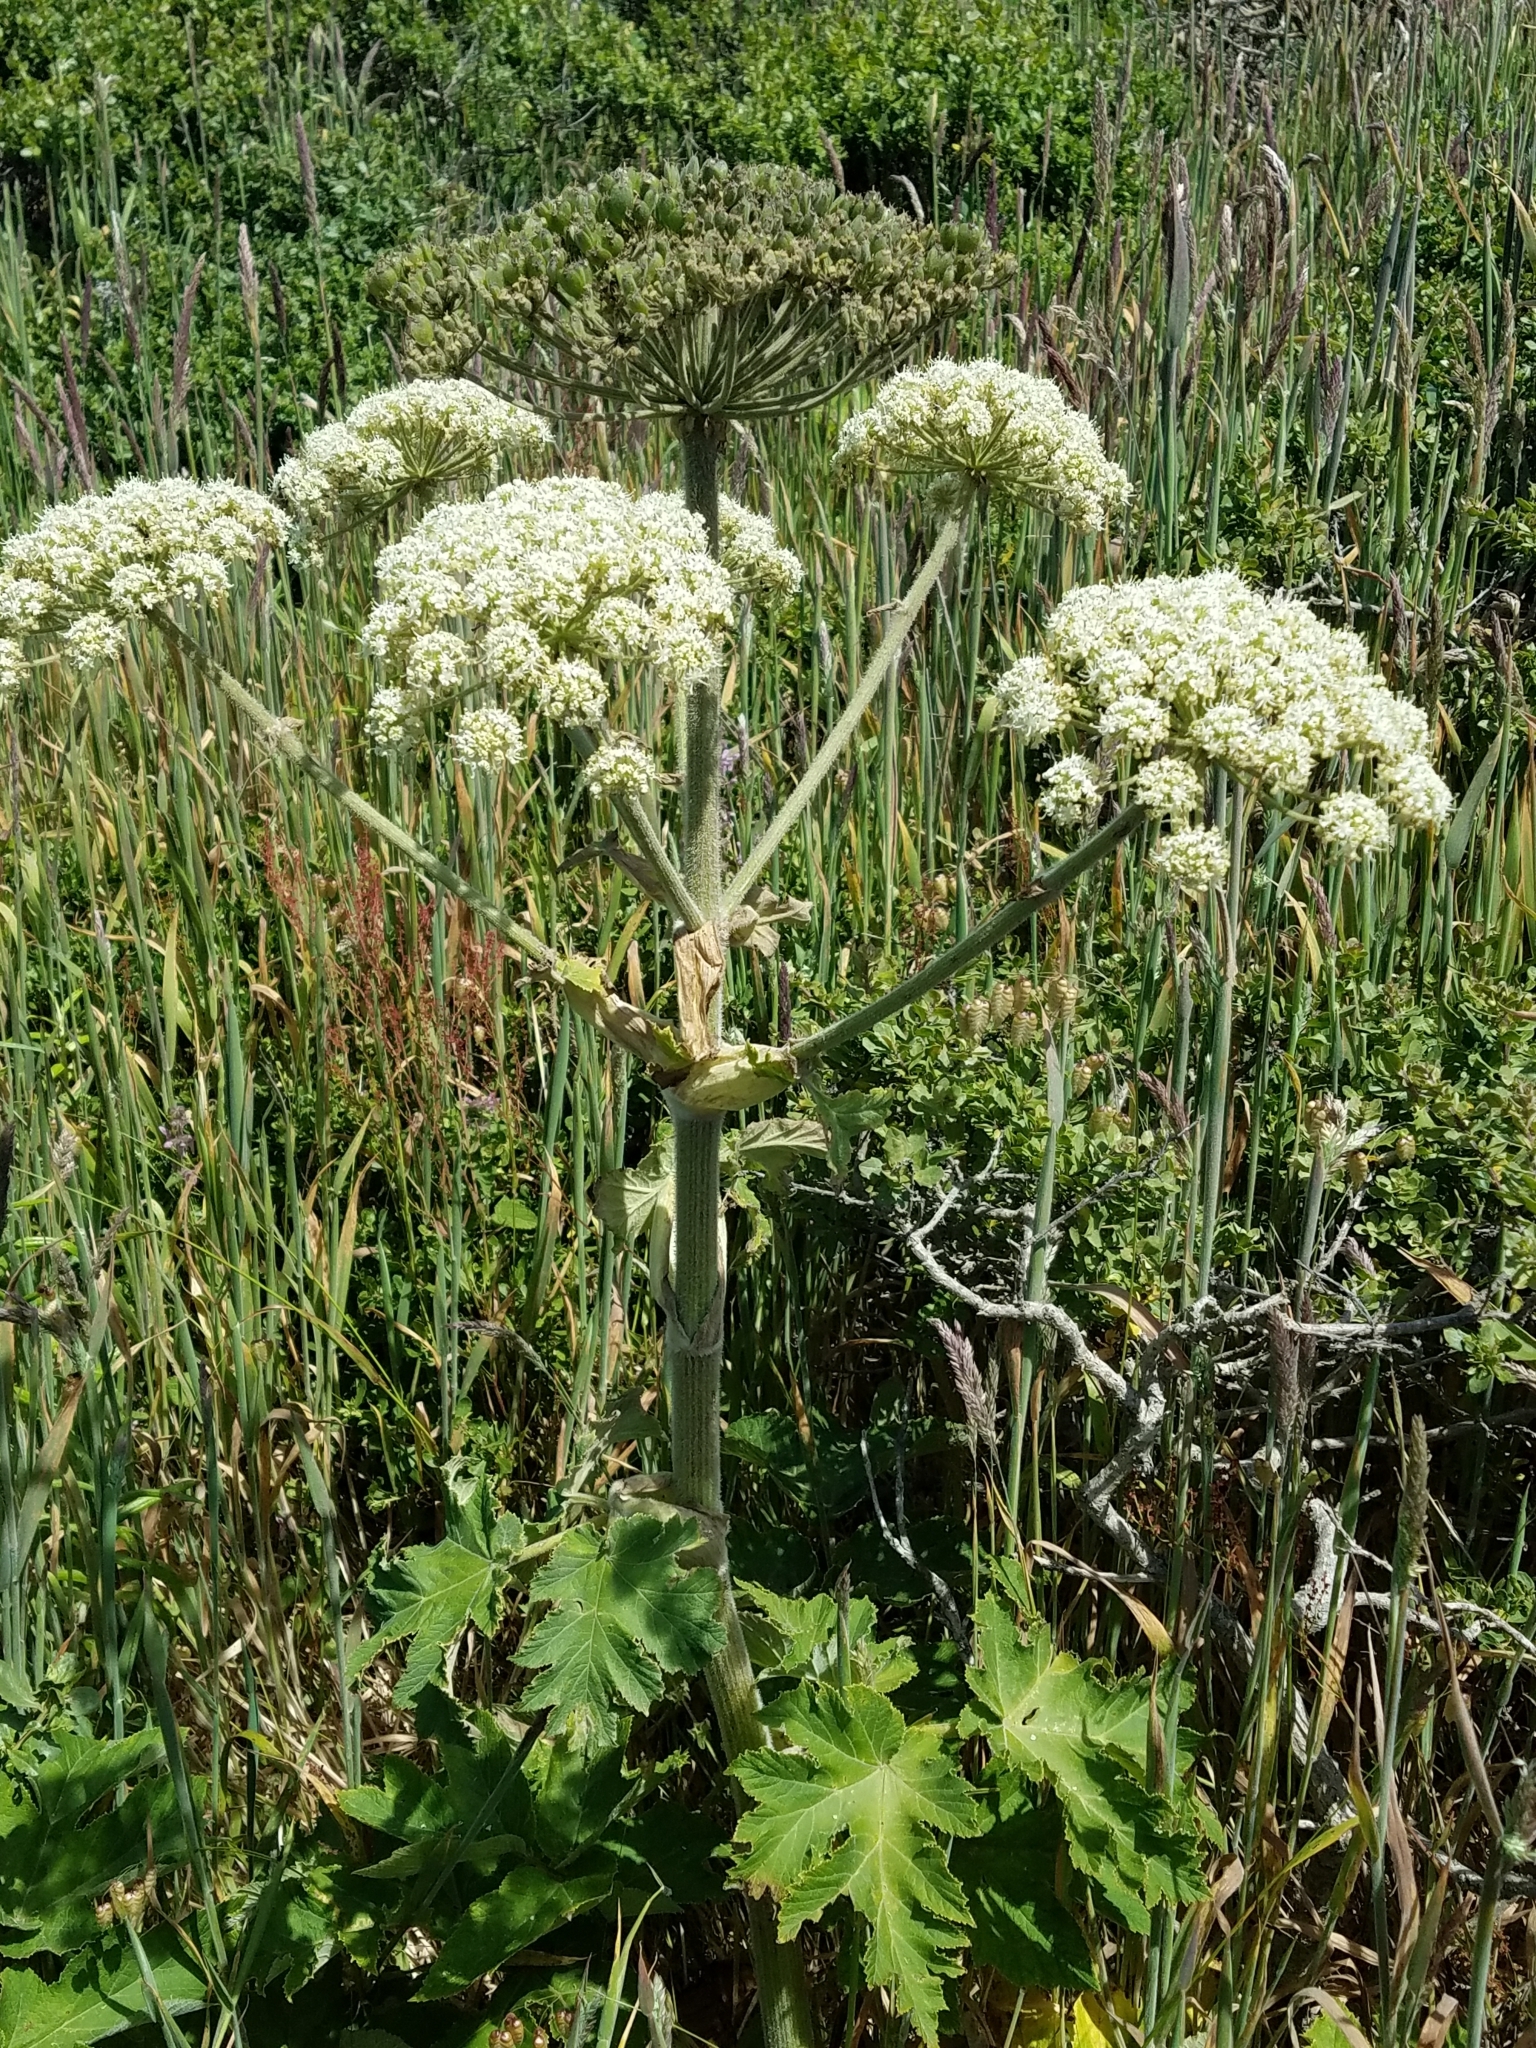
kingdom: Plantae
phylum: Tracheophyta
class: Magnoliopsida
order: Apiales
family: Apiaceae
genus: Heracleum
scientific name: Heracleum maximum
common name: American cow parsnip
